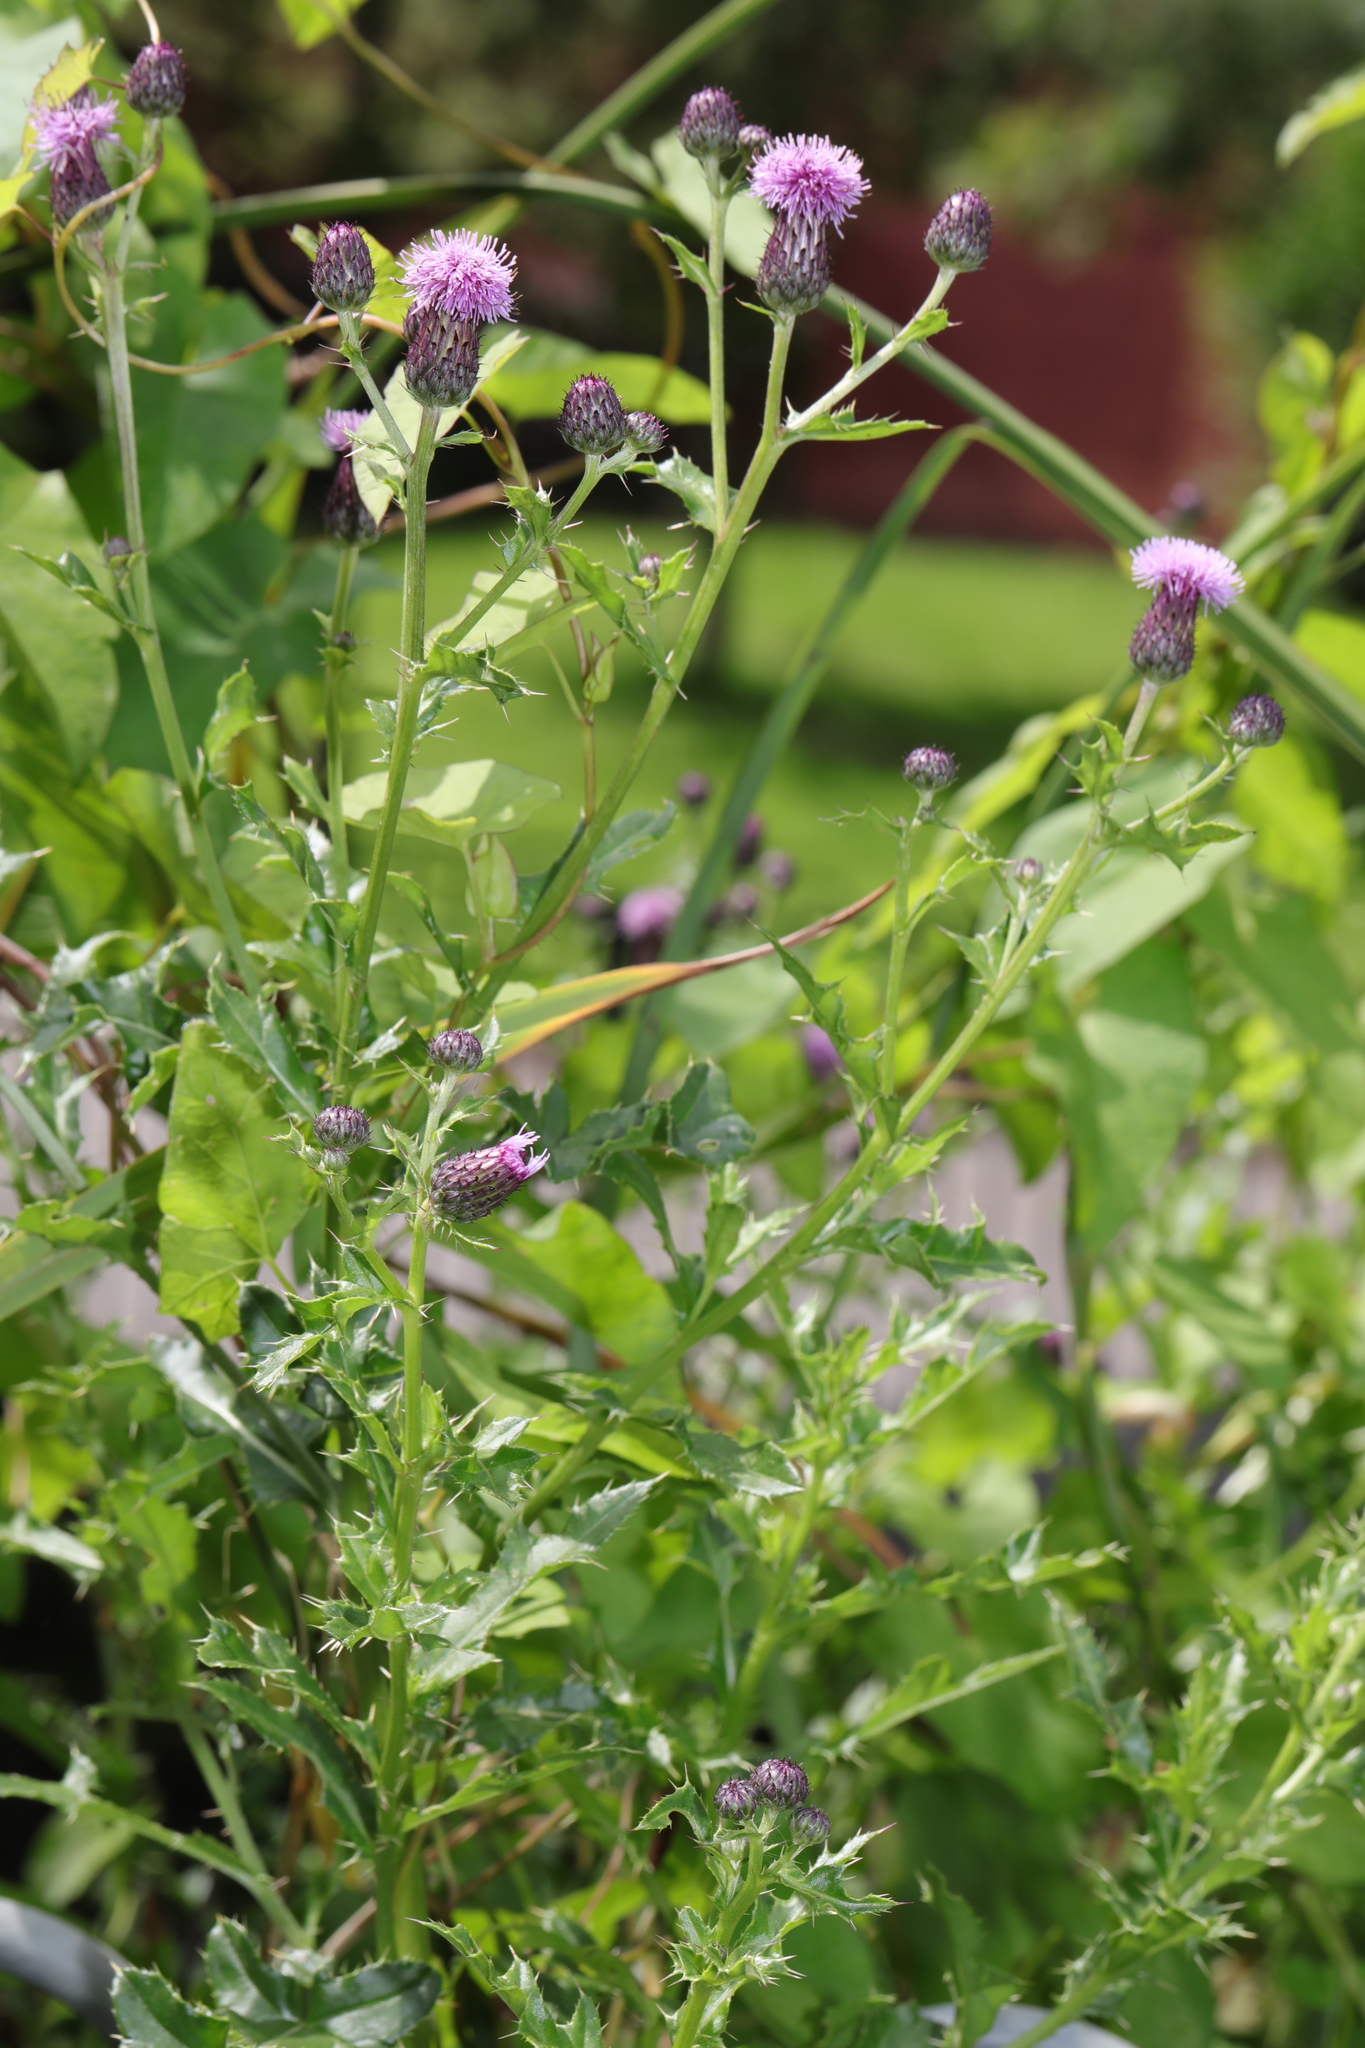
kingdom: Plantae
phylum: Tracheophyta
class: Magnoliopsida
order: Asterales
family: Asteraceae
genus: Cirsium
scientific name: Cirsium arvense
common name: Creeping thistle
